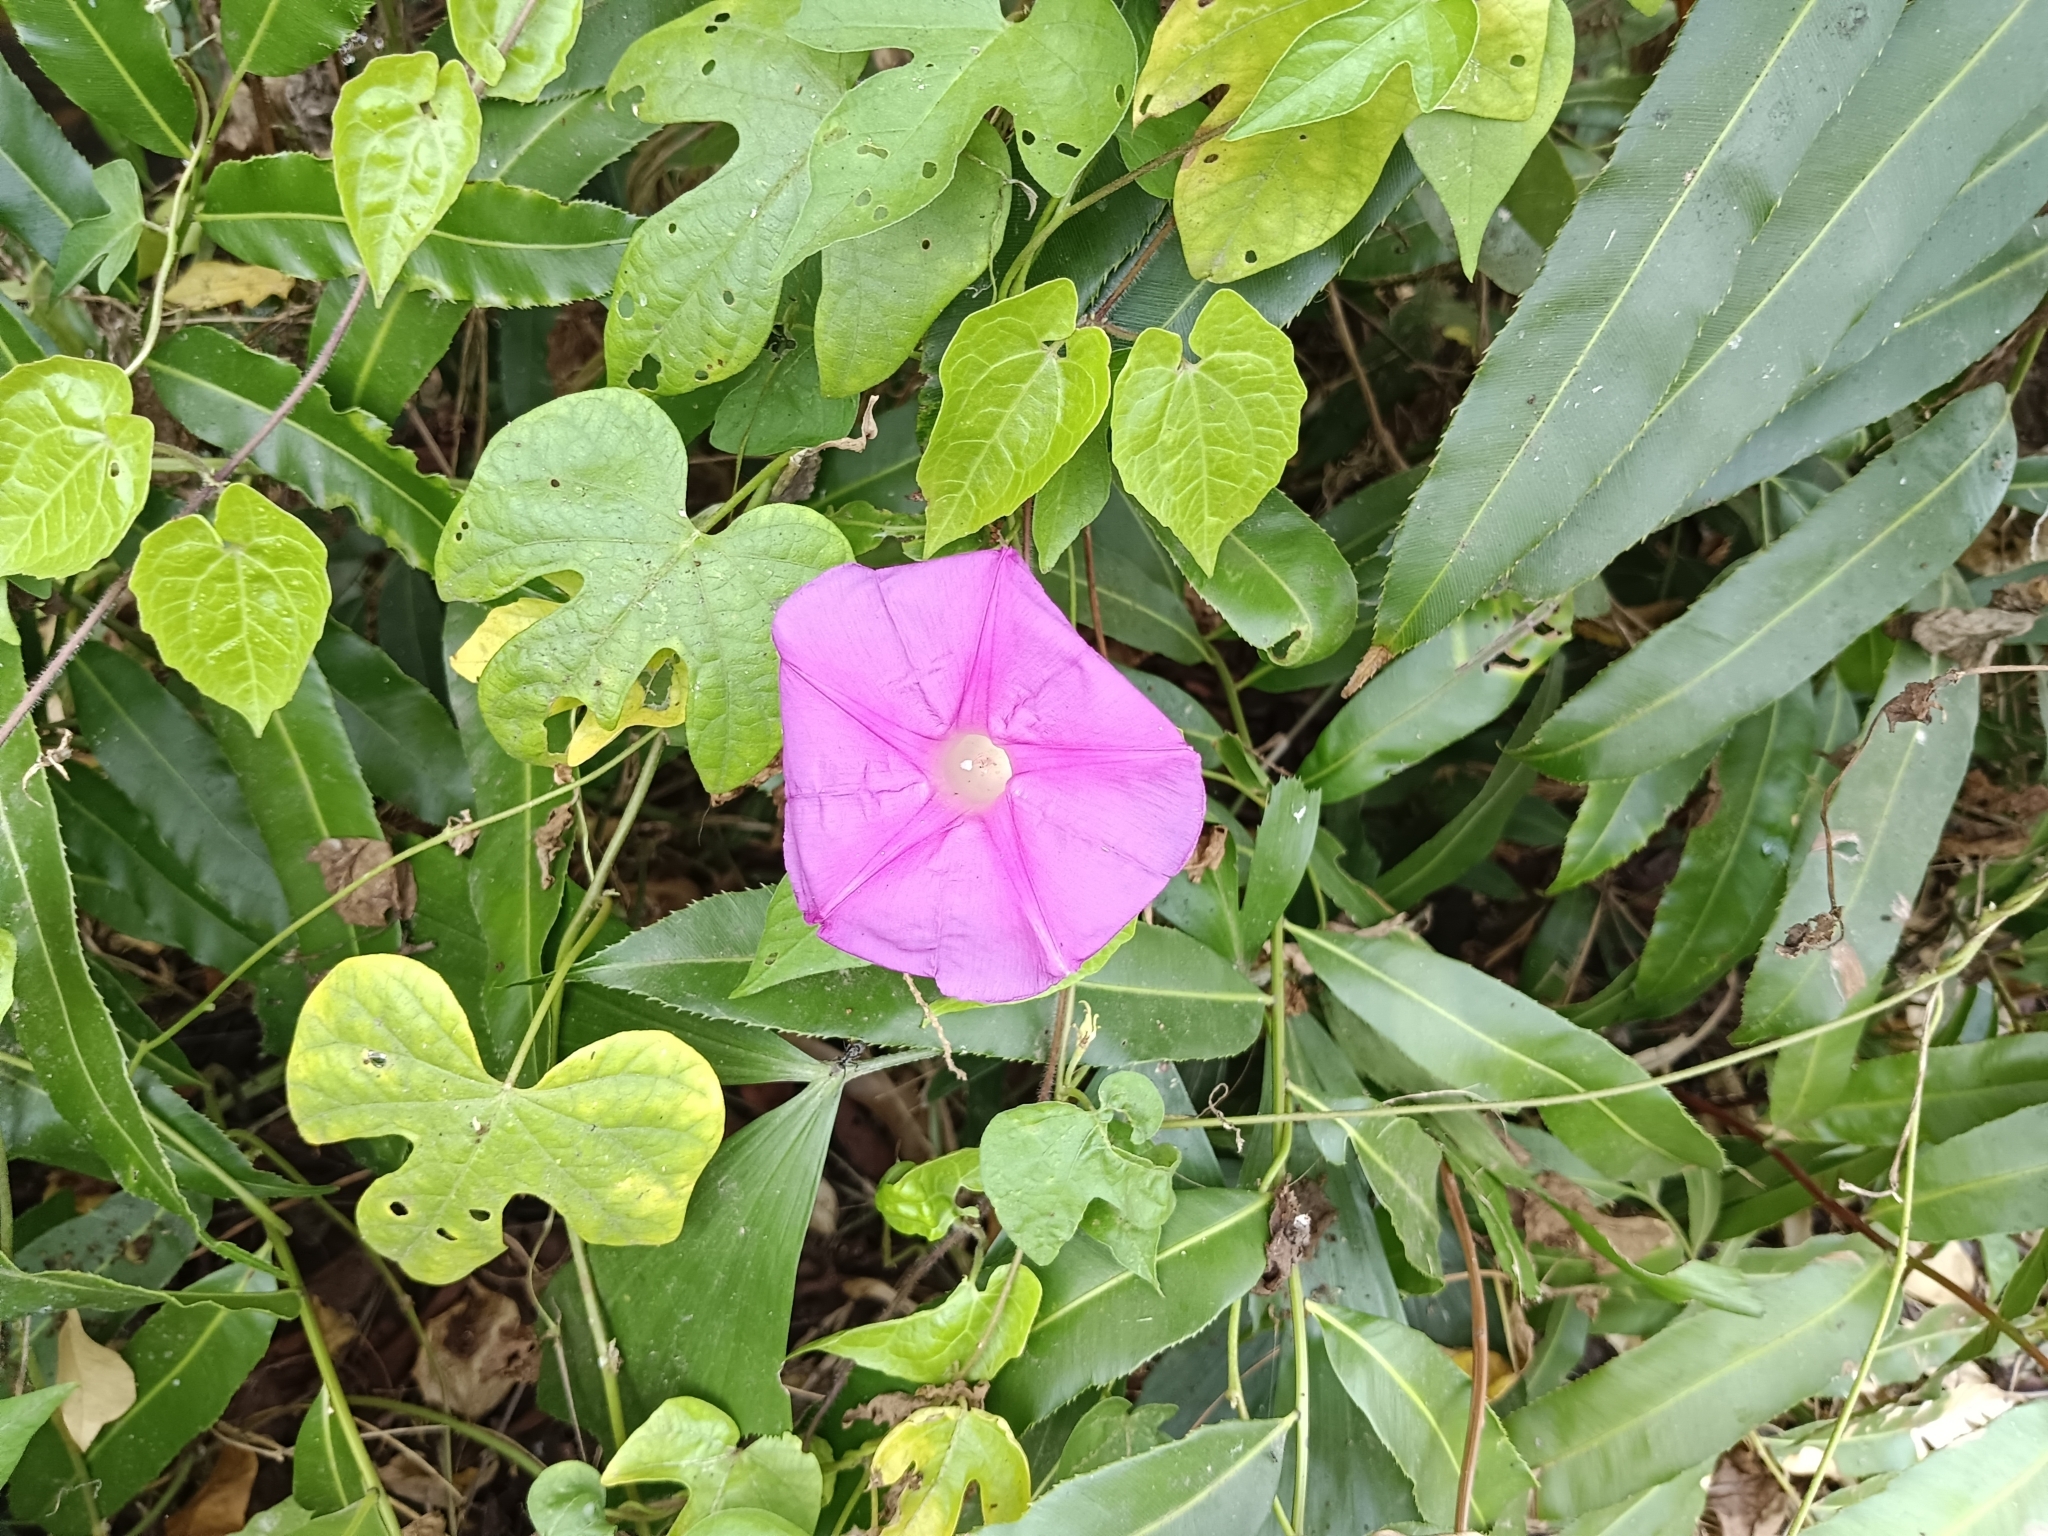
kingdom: Plantae
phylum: Tracheophyta
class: Magnoliopsida
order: Solanales
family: Convolvulaceae
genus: Ipomoea
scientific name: Ipomoea indica
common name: Blue dawnflower
